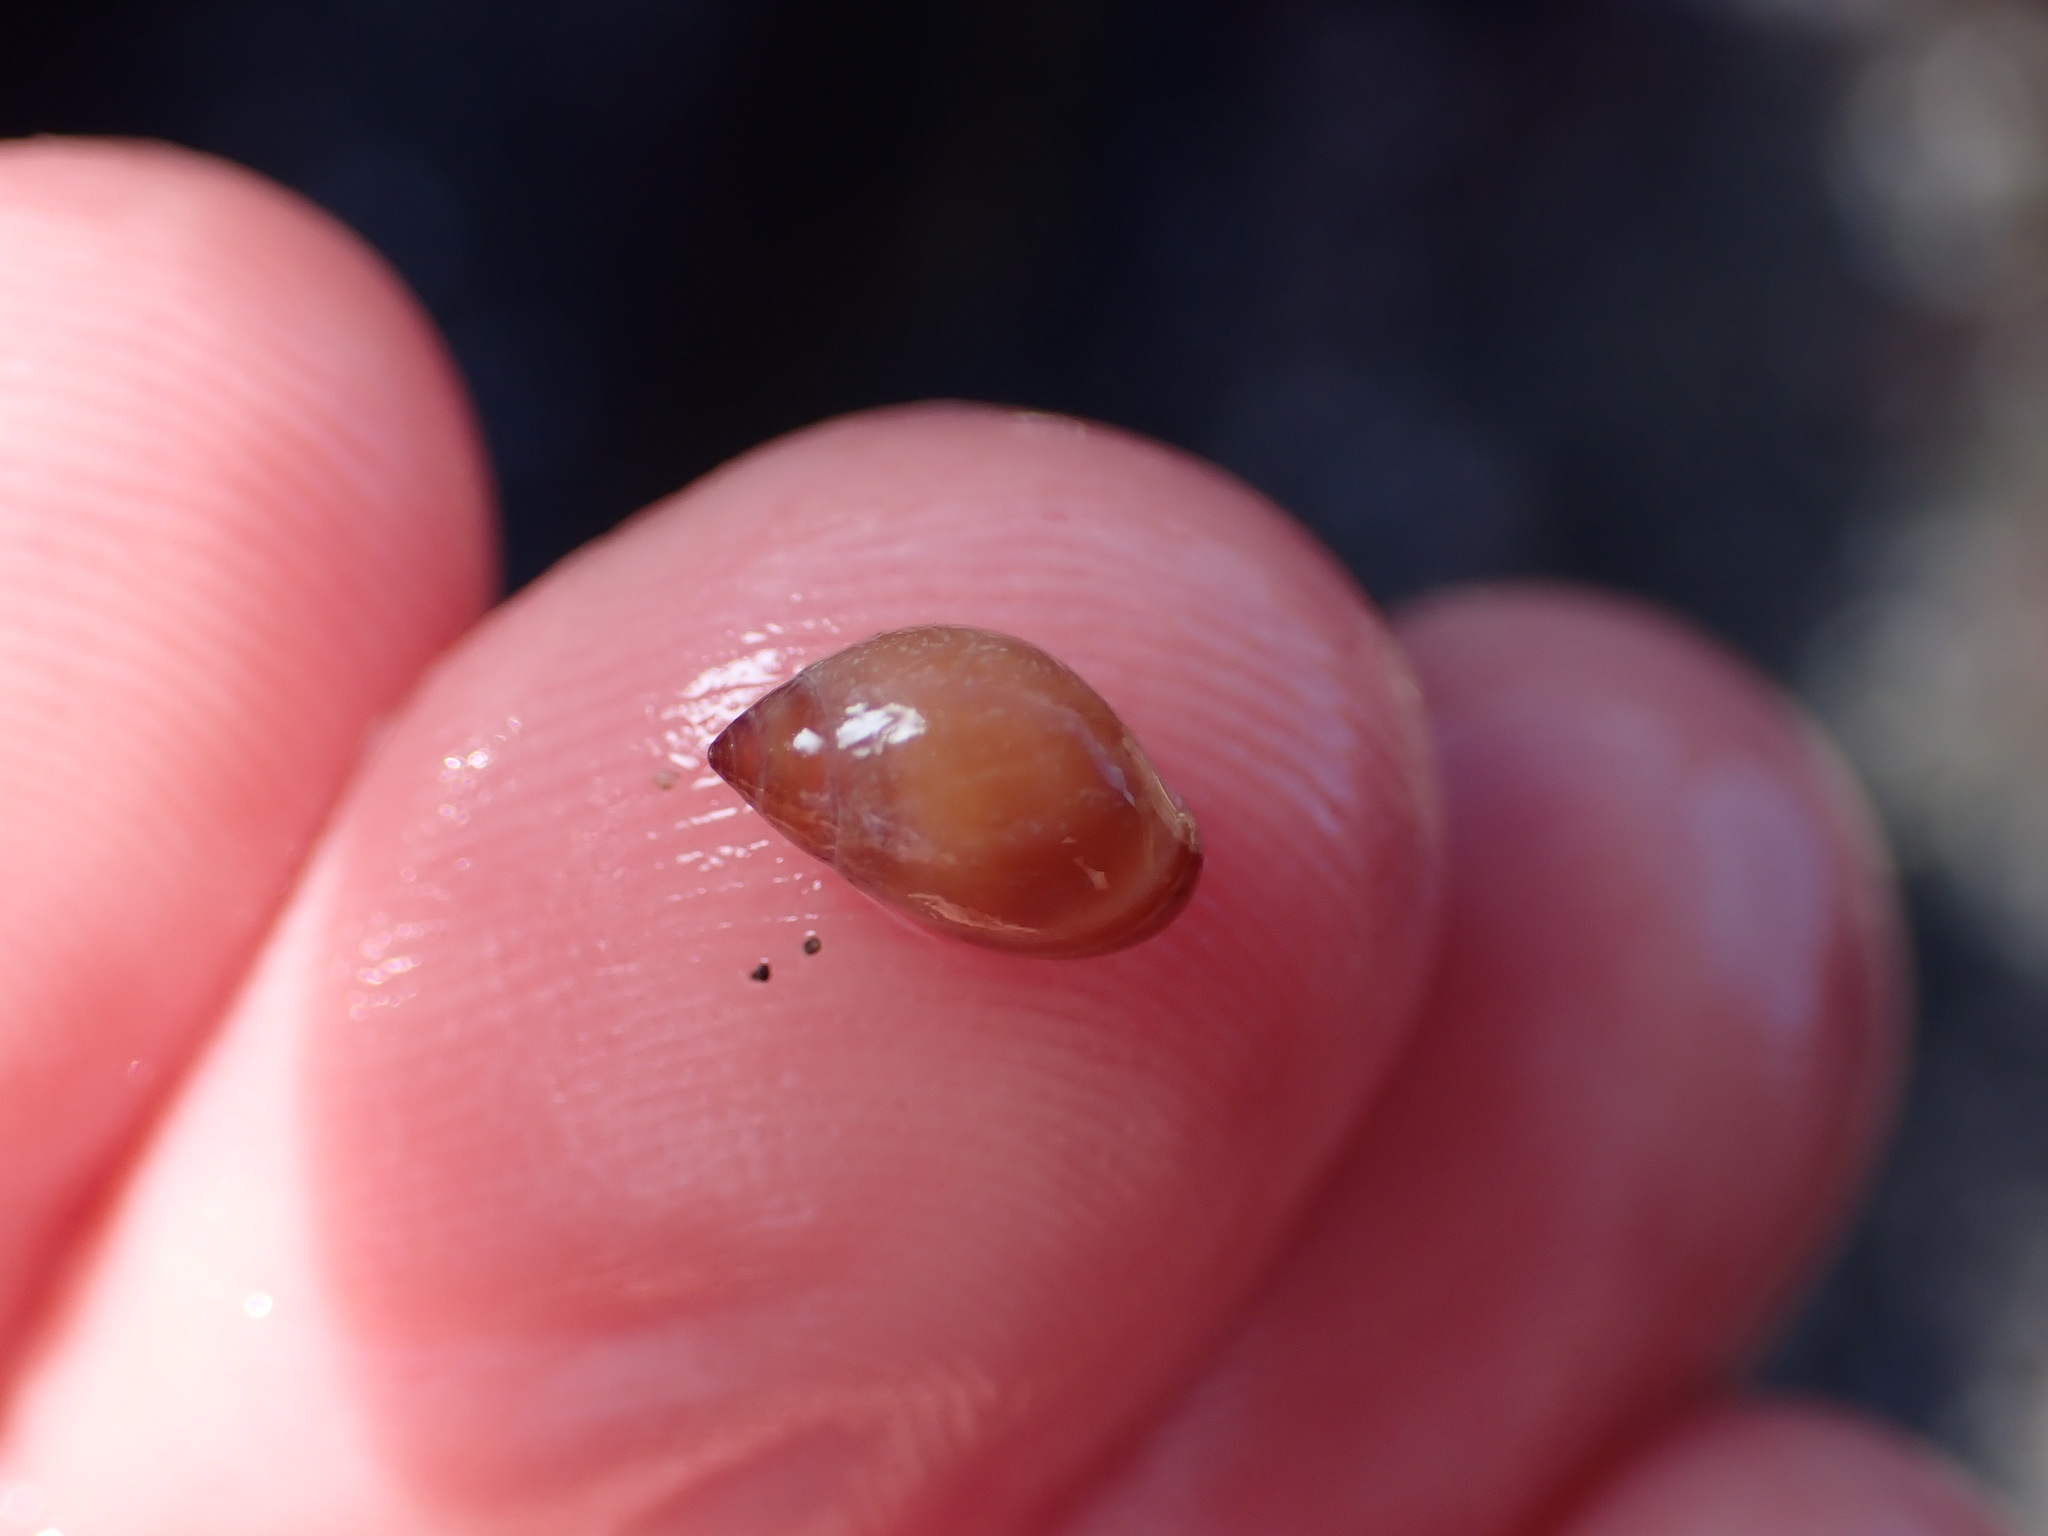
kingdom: Animalia
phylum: Mollusca
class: Gastropoda
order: Ellobiida
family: Ellobiidae
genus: Marinula
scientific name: Marinula filholi
